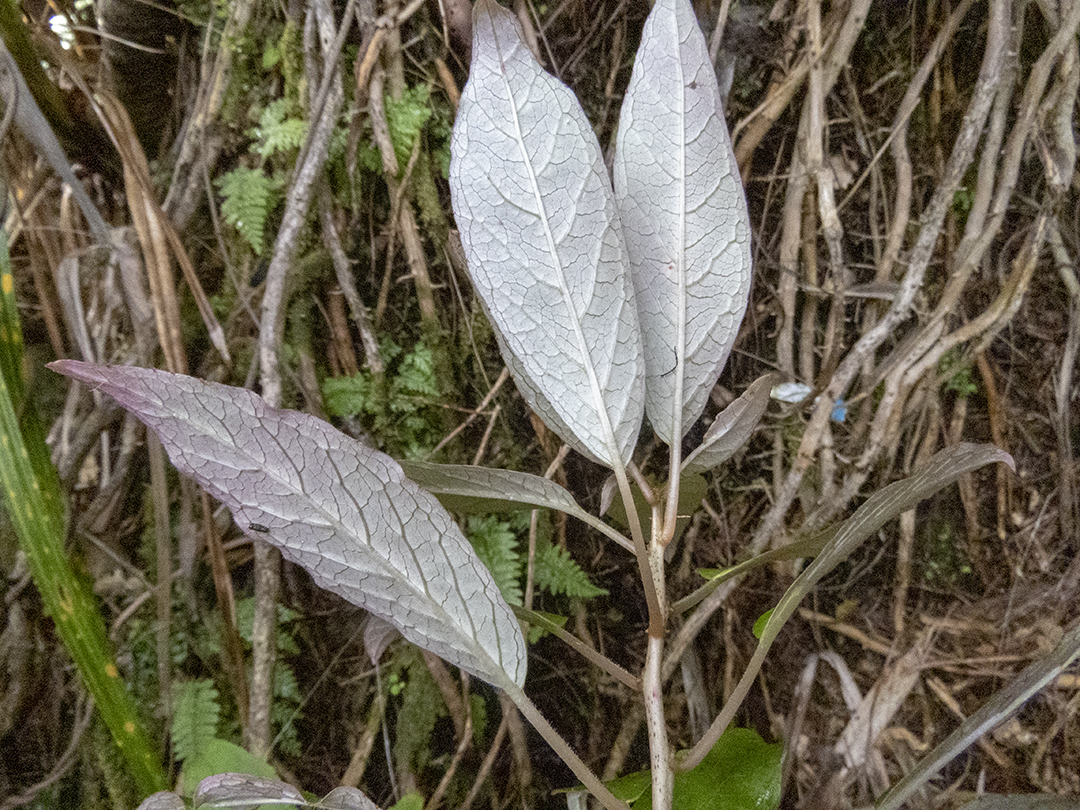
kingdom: Plantae
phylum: Tracheophyta
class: Magnoliopsida
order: Myrtales
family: Onagraceae
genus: Fuchsia
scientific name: Fuchsia excorticata
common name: Tree fuchsia
